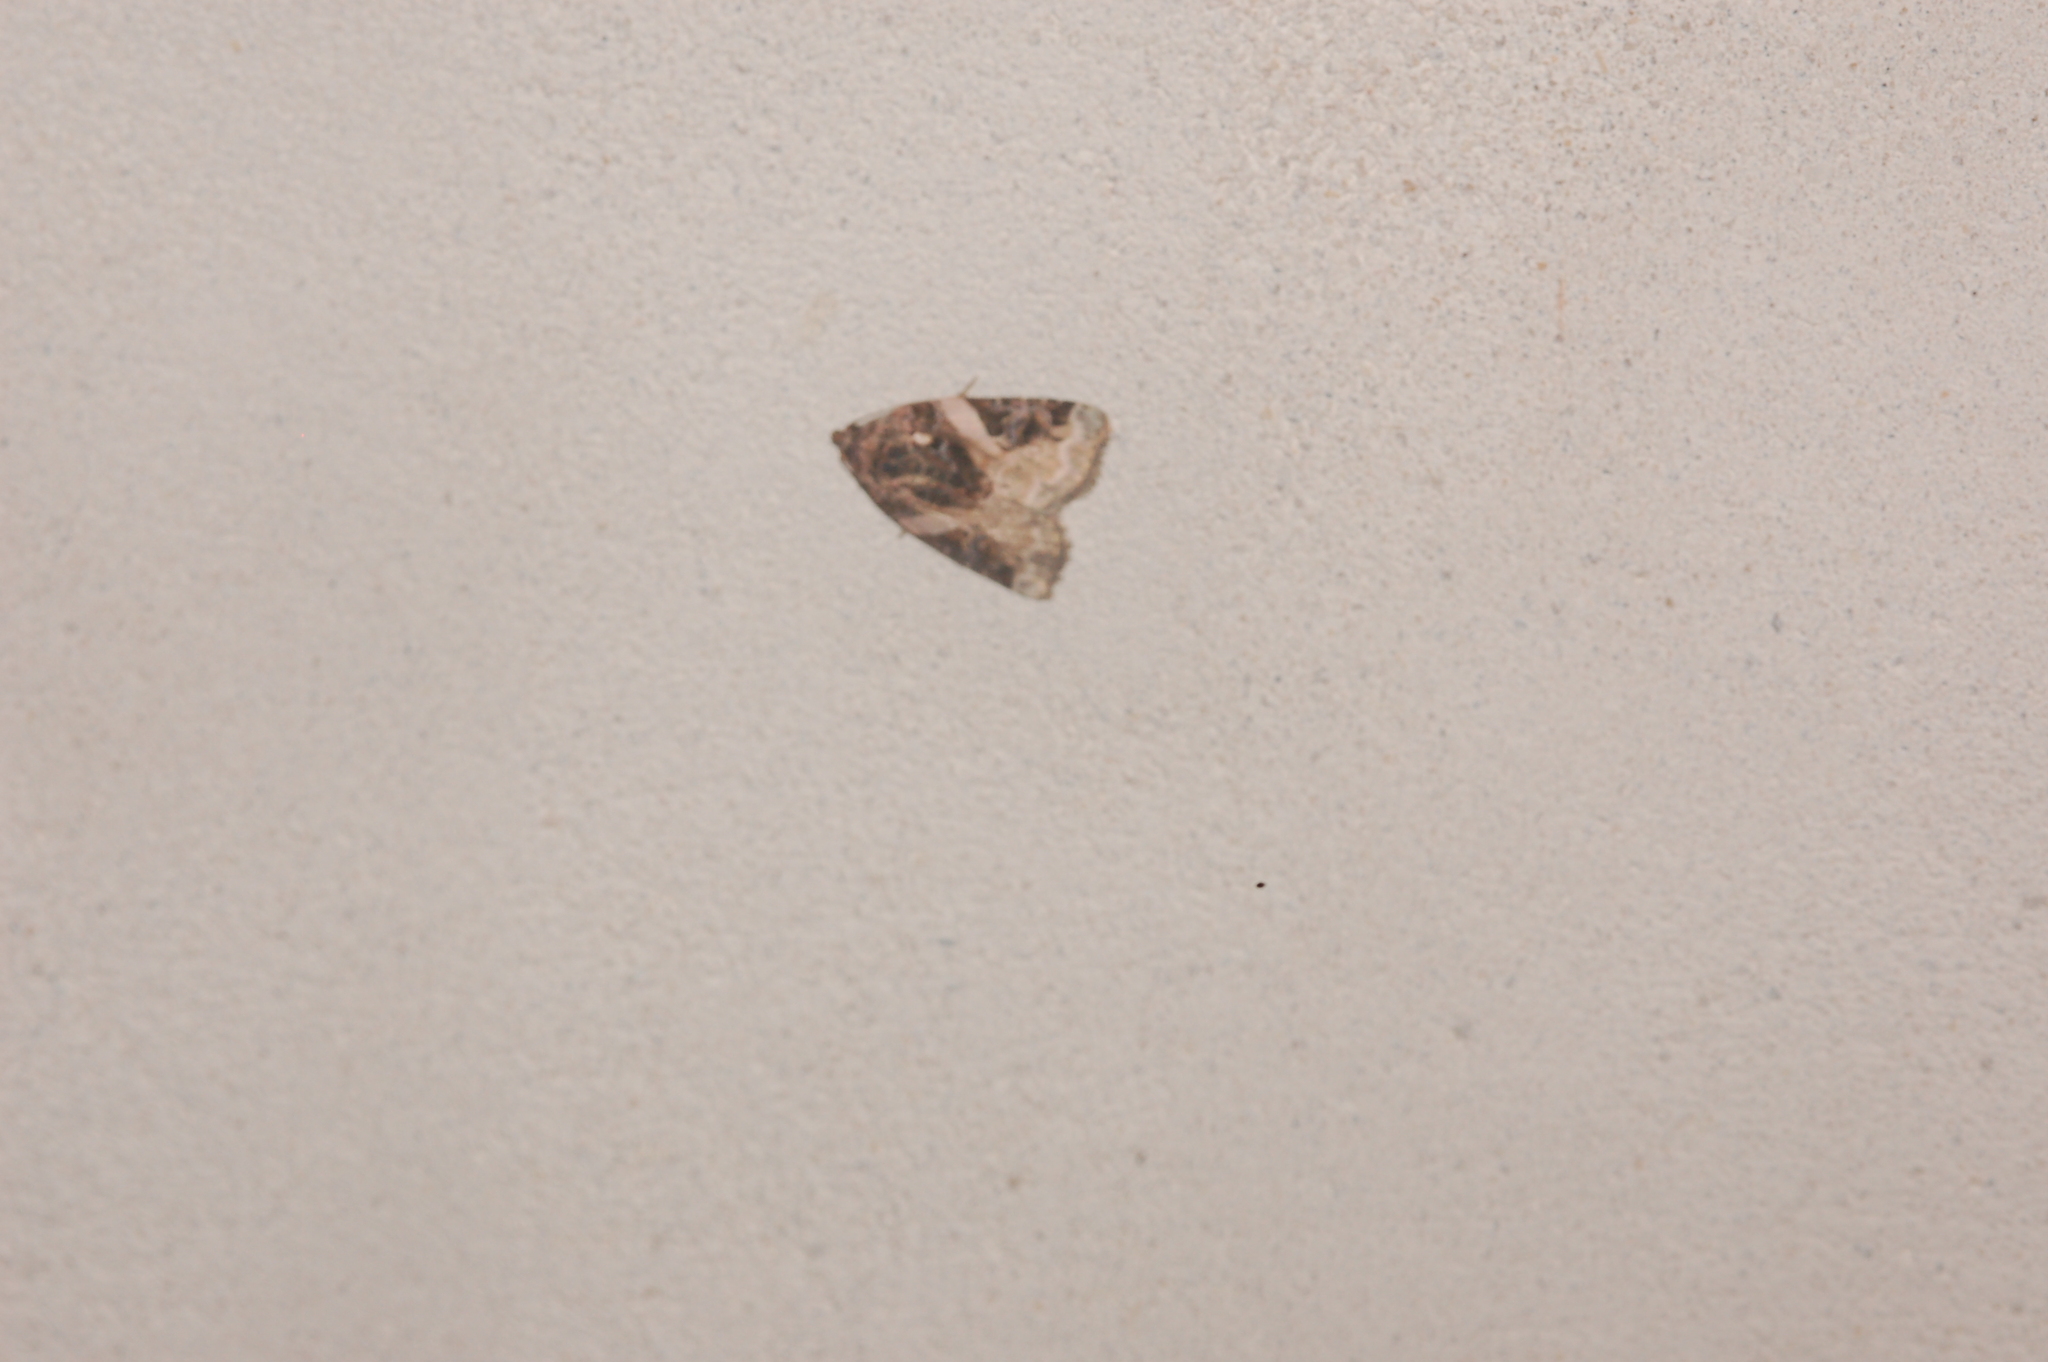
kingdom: Animalia
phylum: Arthropoda
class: Insecta
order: Lepidoptera
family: Noctuidae
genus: Pseudeustrotia
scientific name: Pseudeustrotia carneola
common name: Pink-barred lithacodia moth
